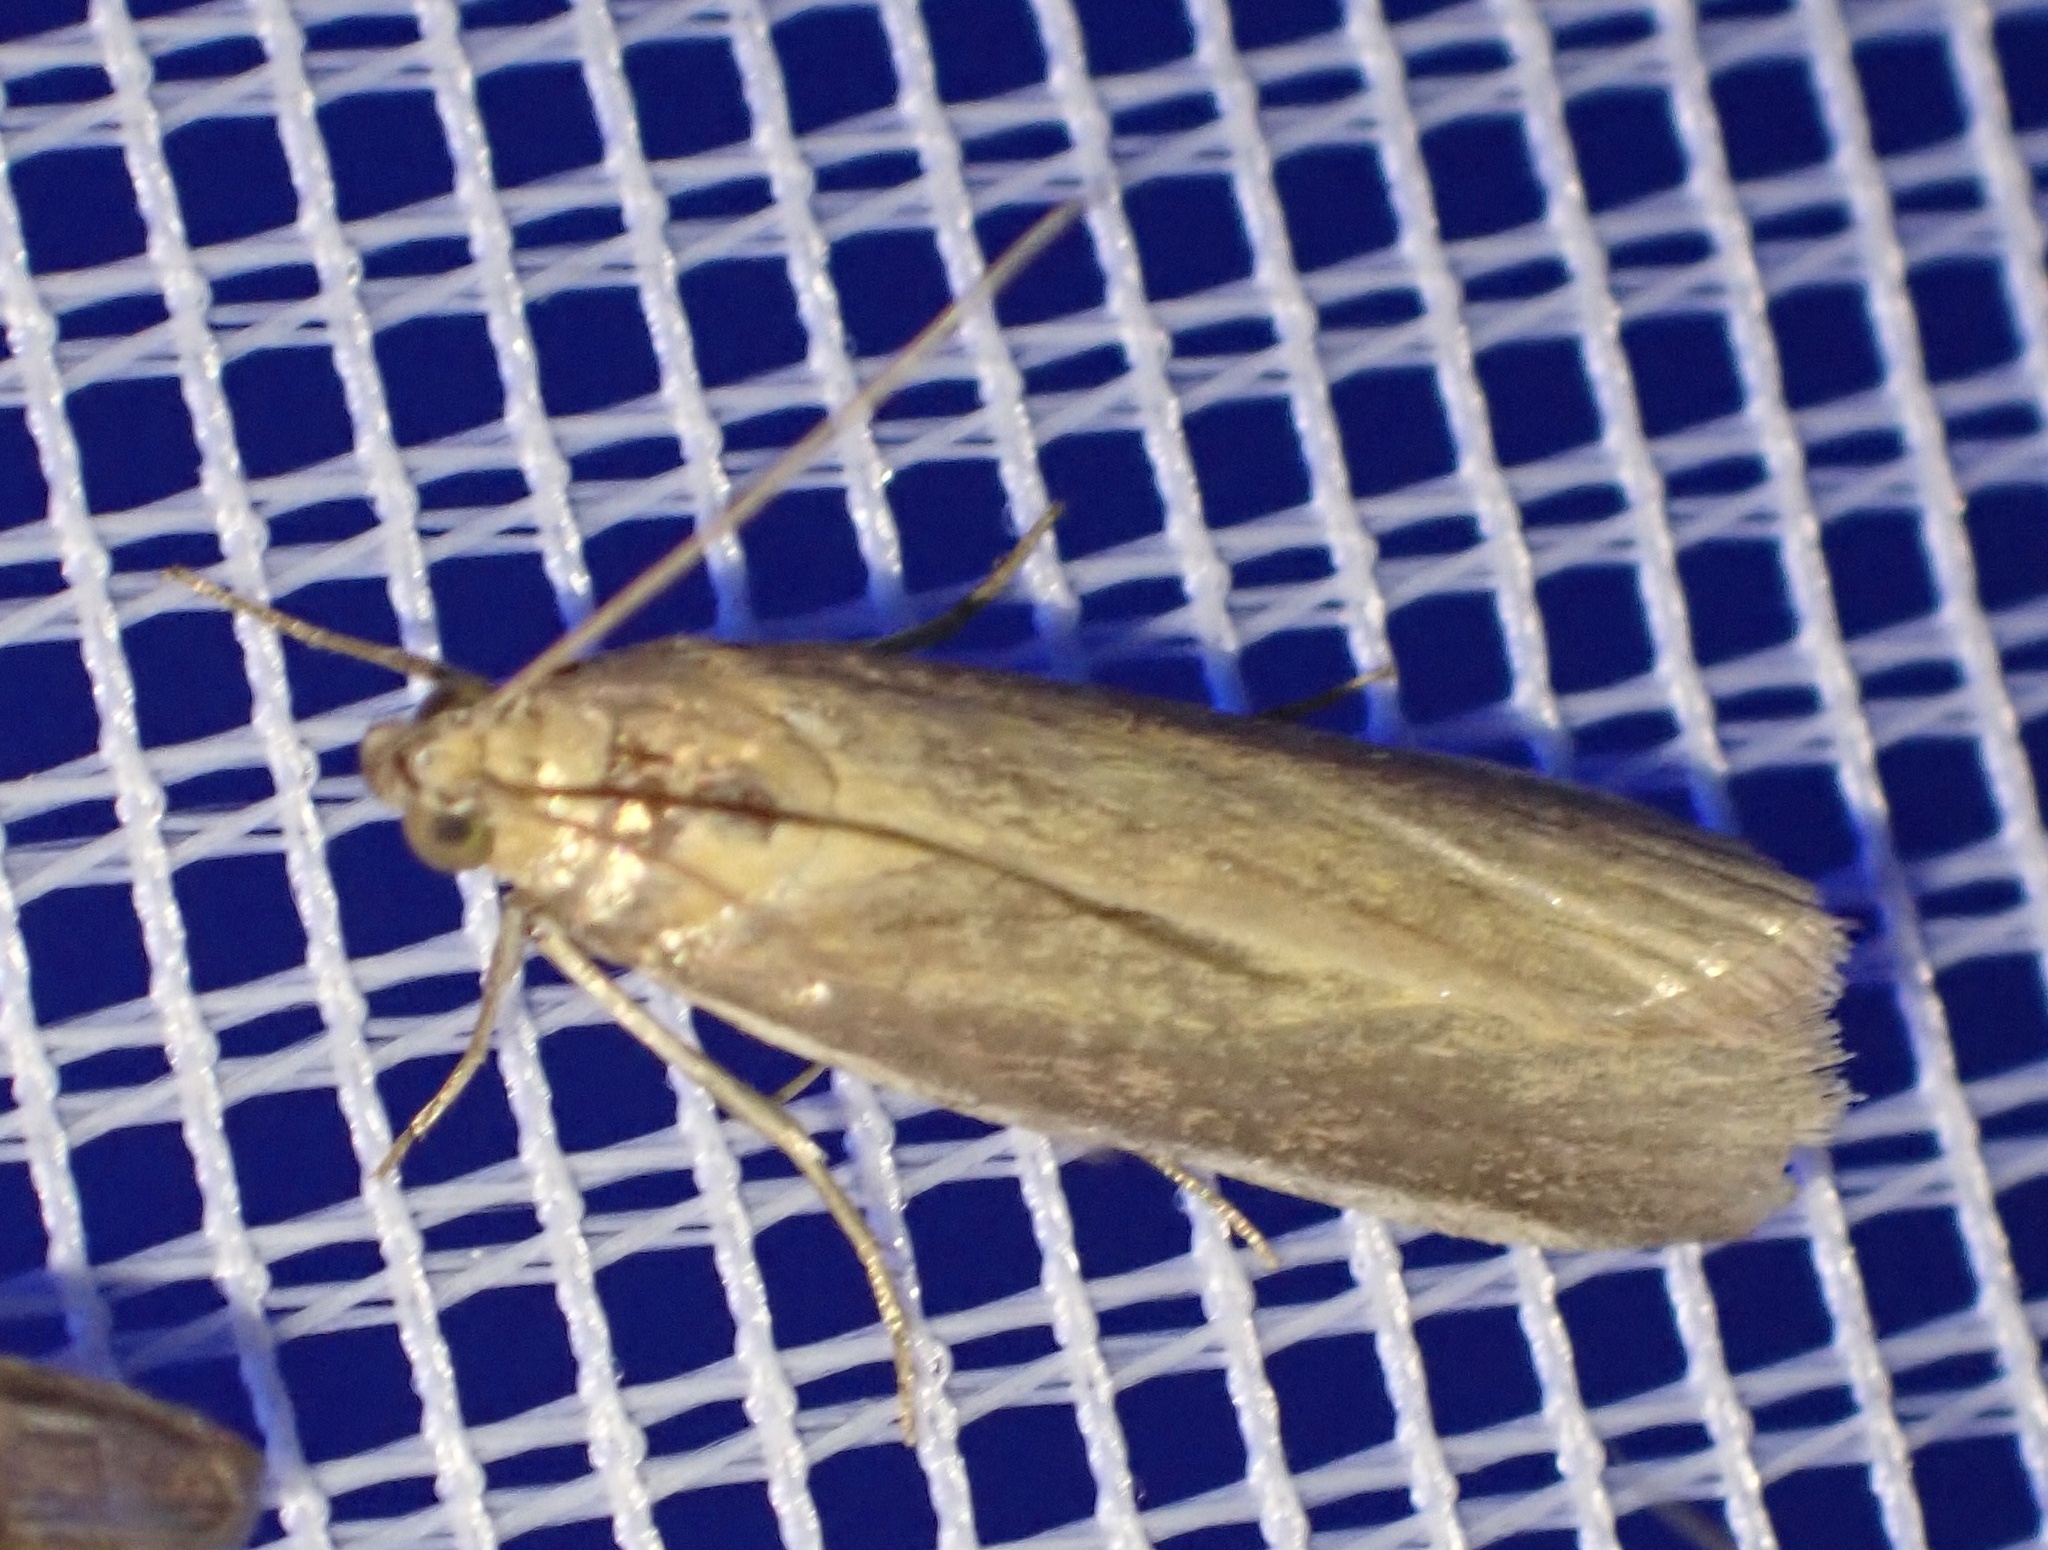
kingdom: Animalia
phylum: Arthropoda
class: Insecta
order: Lepidoptera
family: Pyralidae
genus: Oncocera
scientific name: Oncocera semirubella
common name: Rosy-striped knot-horn
